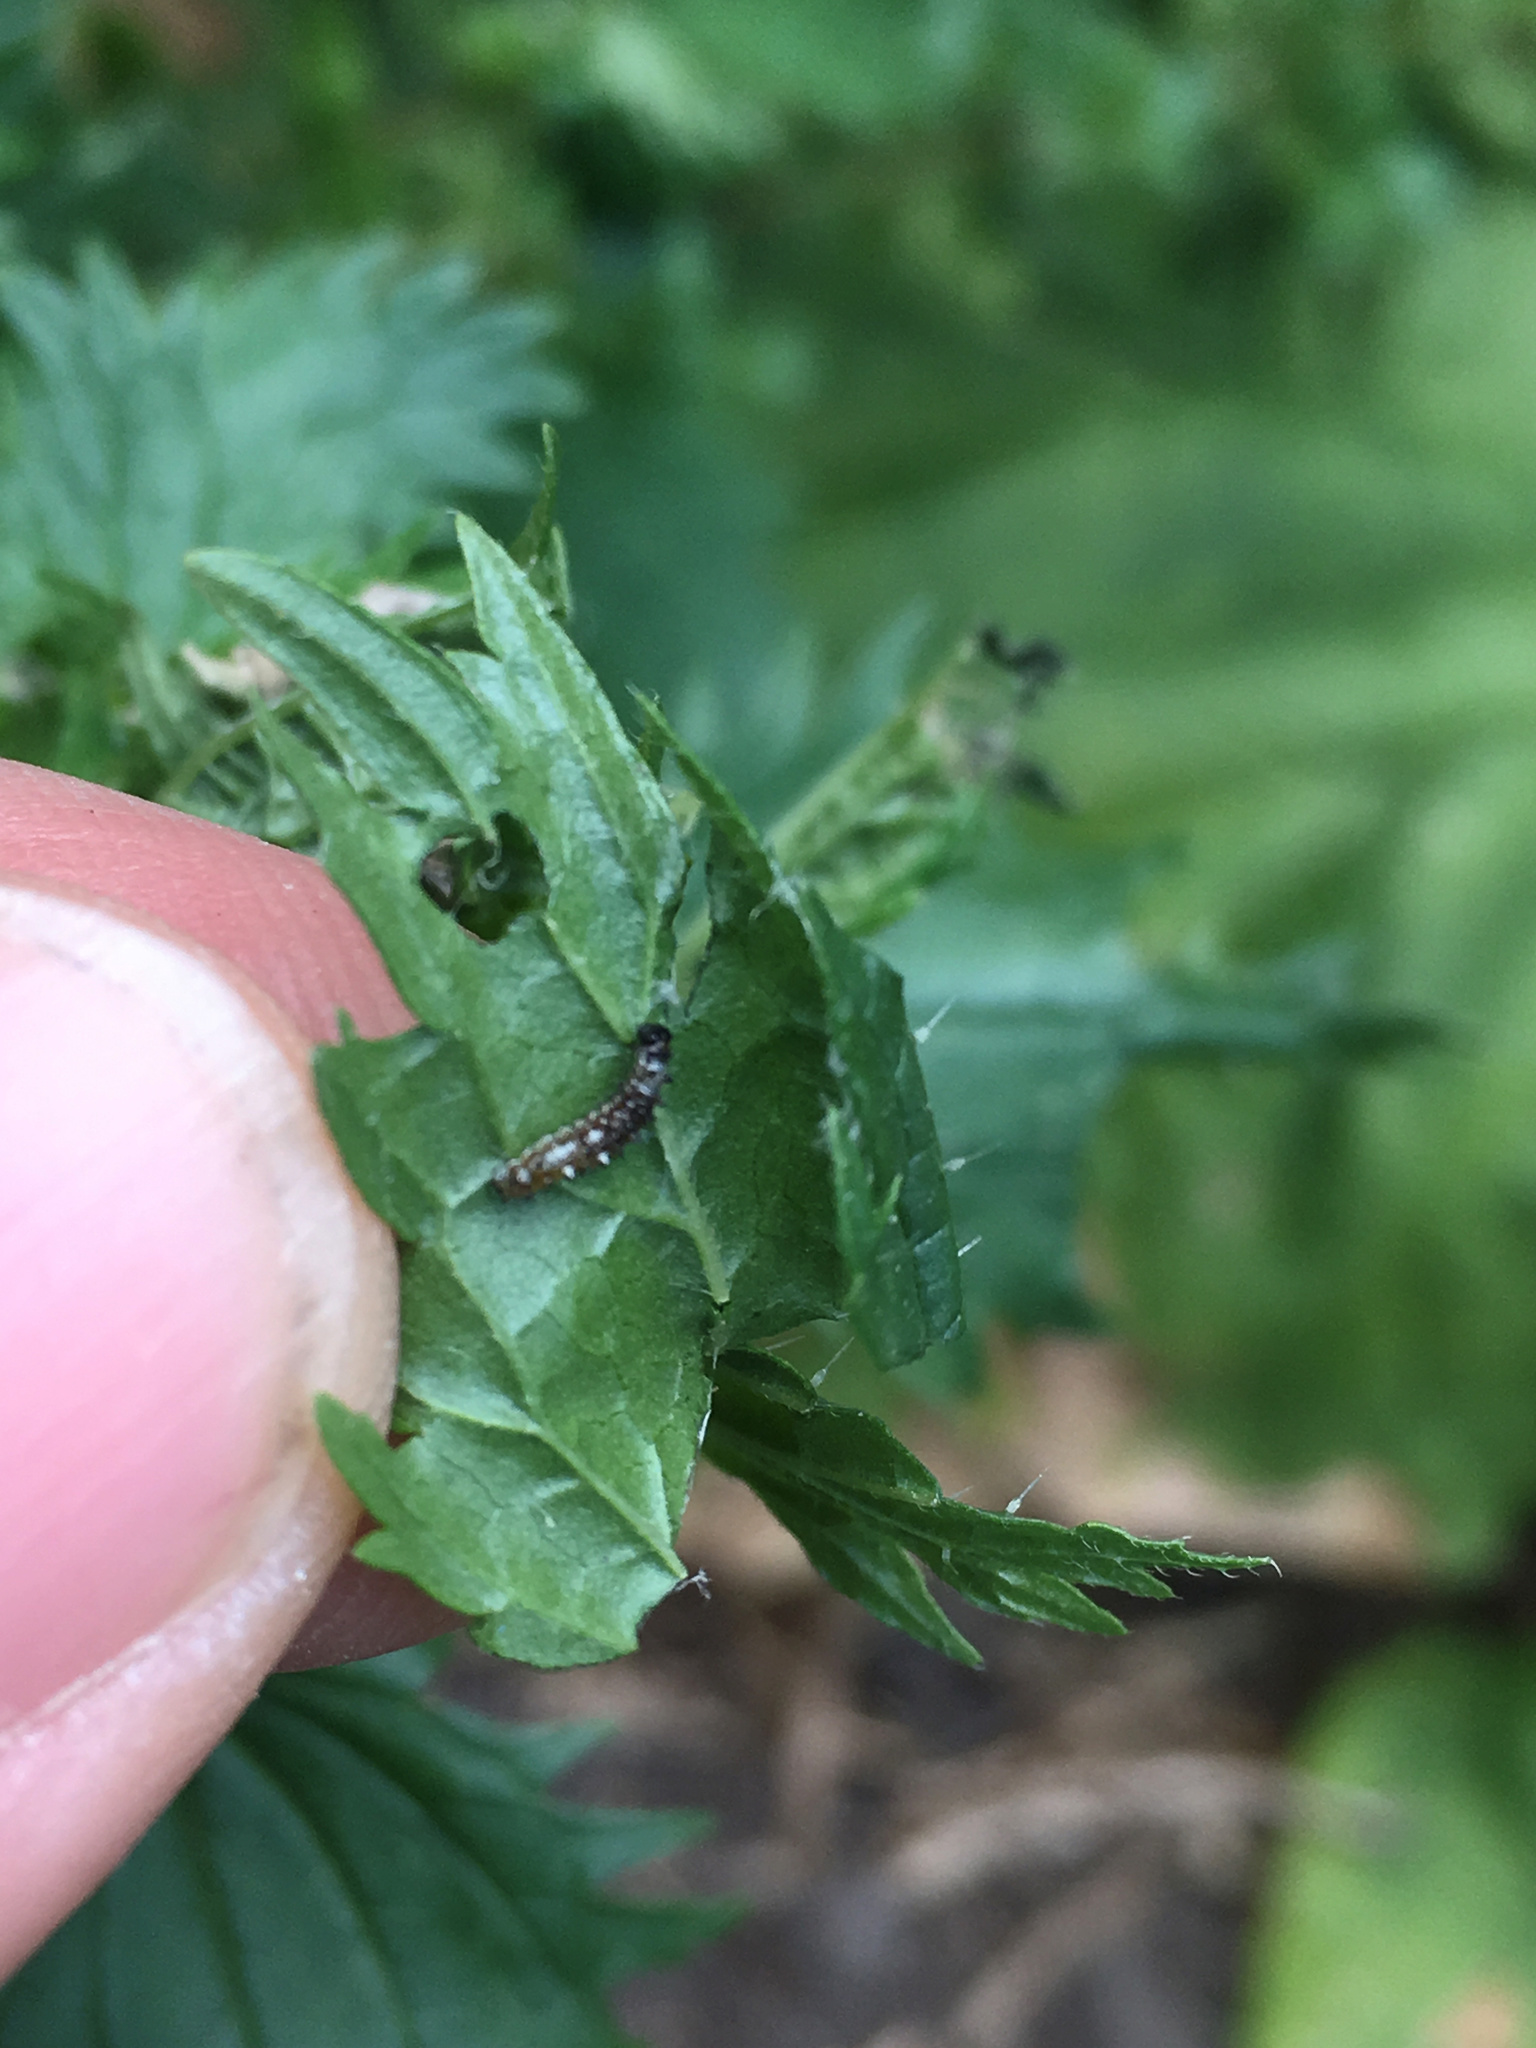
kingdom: Animalia
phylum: Arthropoda
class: Insecta
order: Lepidoptera
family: Nymphalidae
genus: Vanessa
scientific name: Vanessa itea
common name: Yellow admiral
